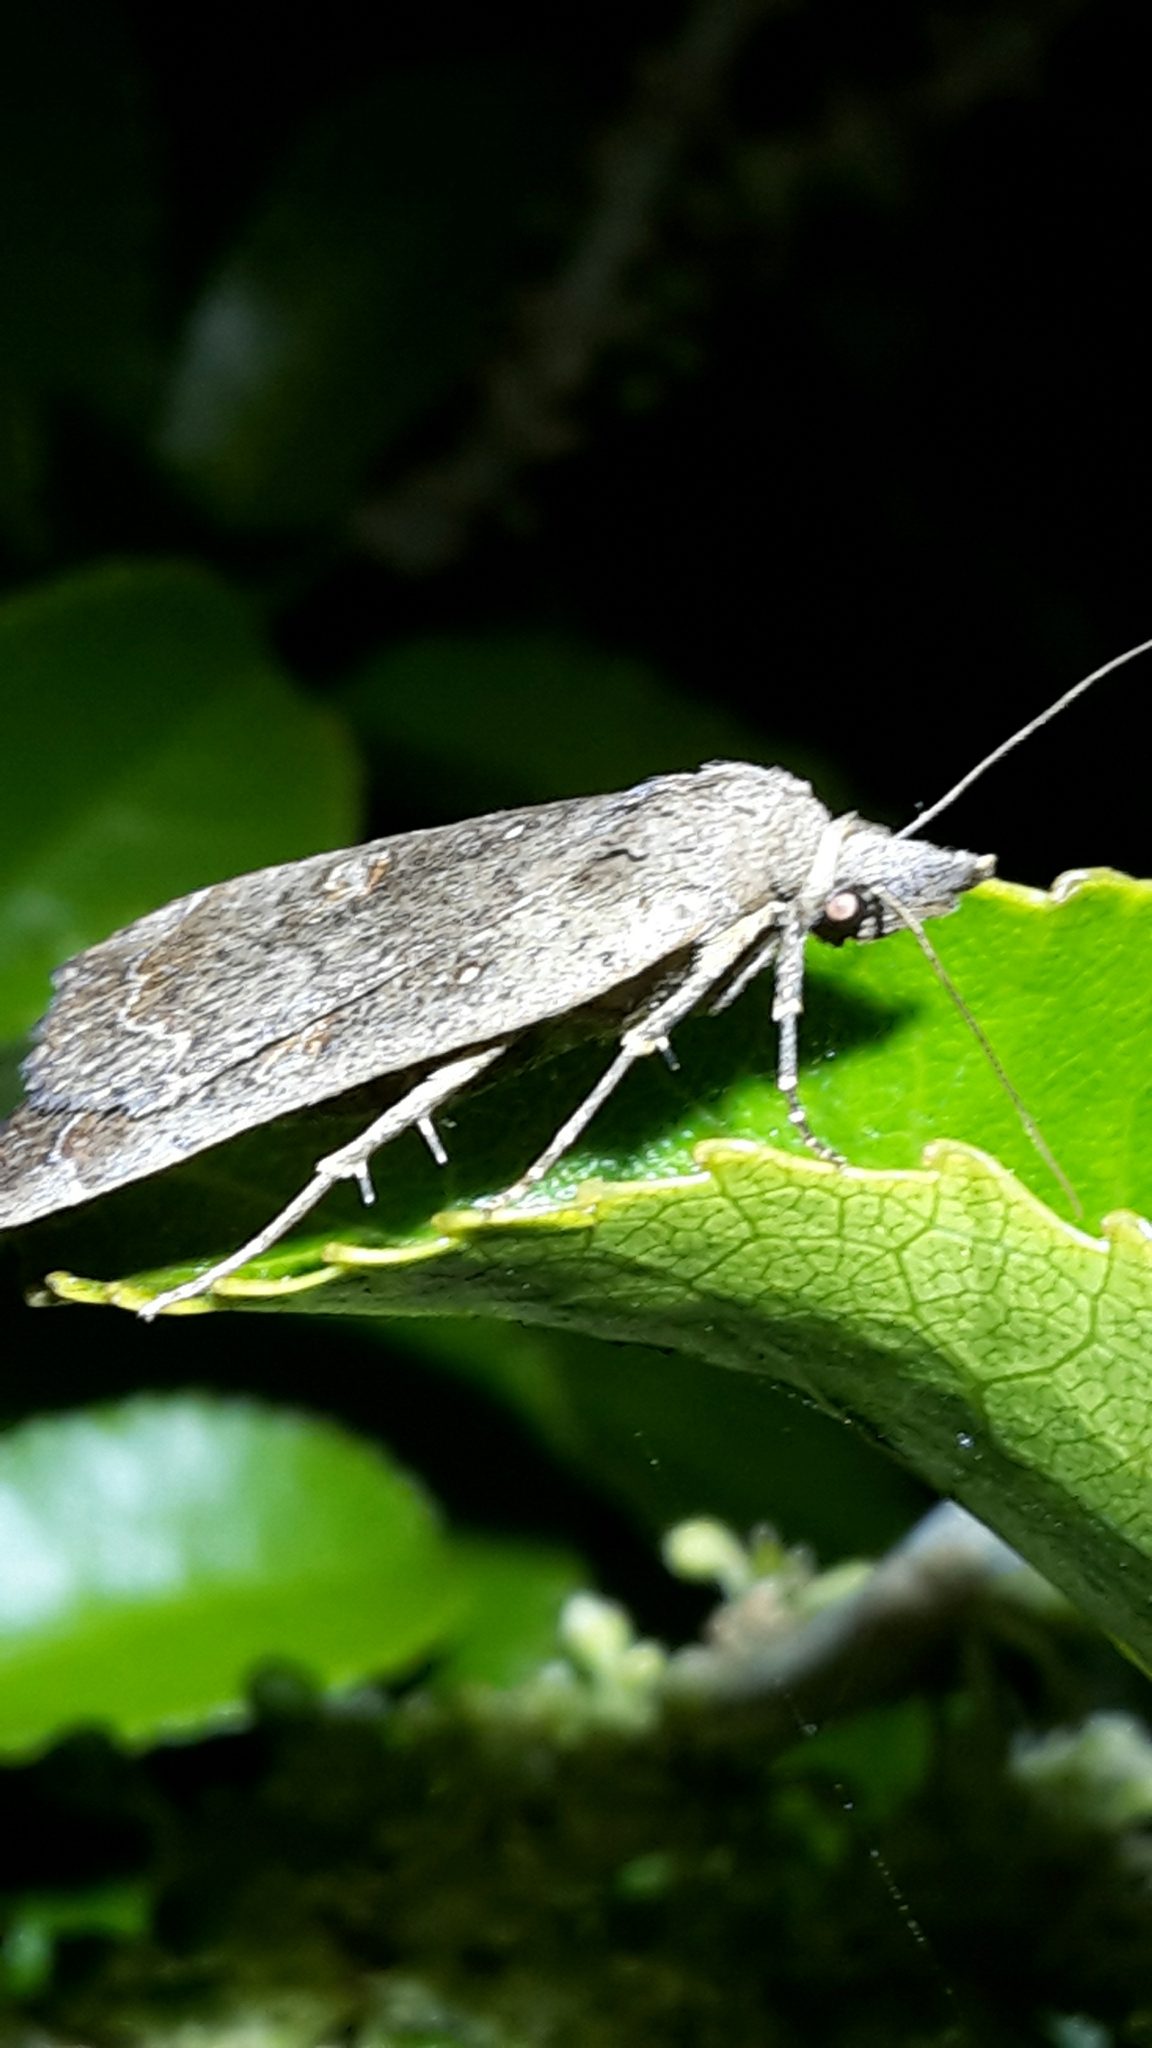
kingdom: Animalia
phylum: Arthropoda
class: Insecta
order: Lepidoptera
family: Erebidae
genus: Rhapsa
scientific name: Rhapsa scotosialis
